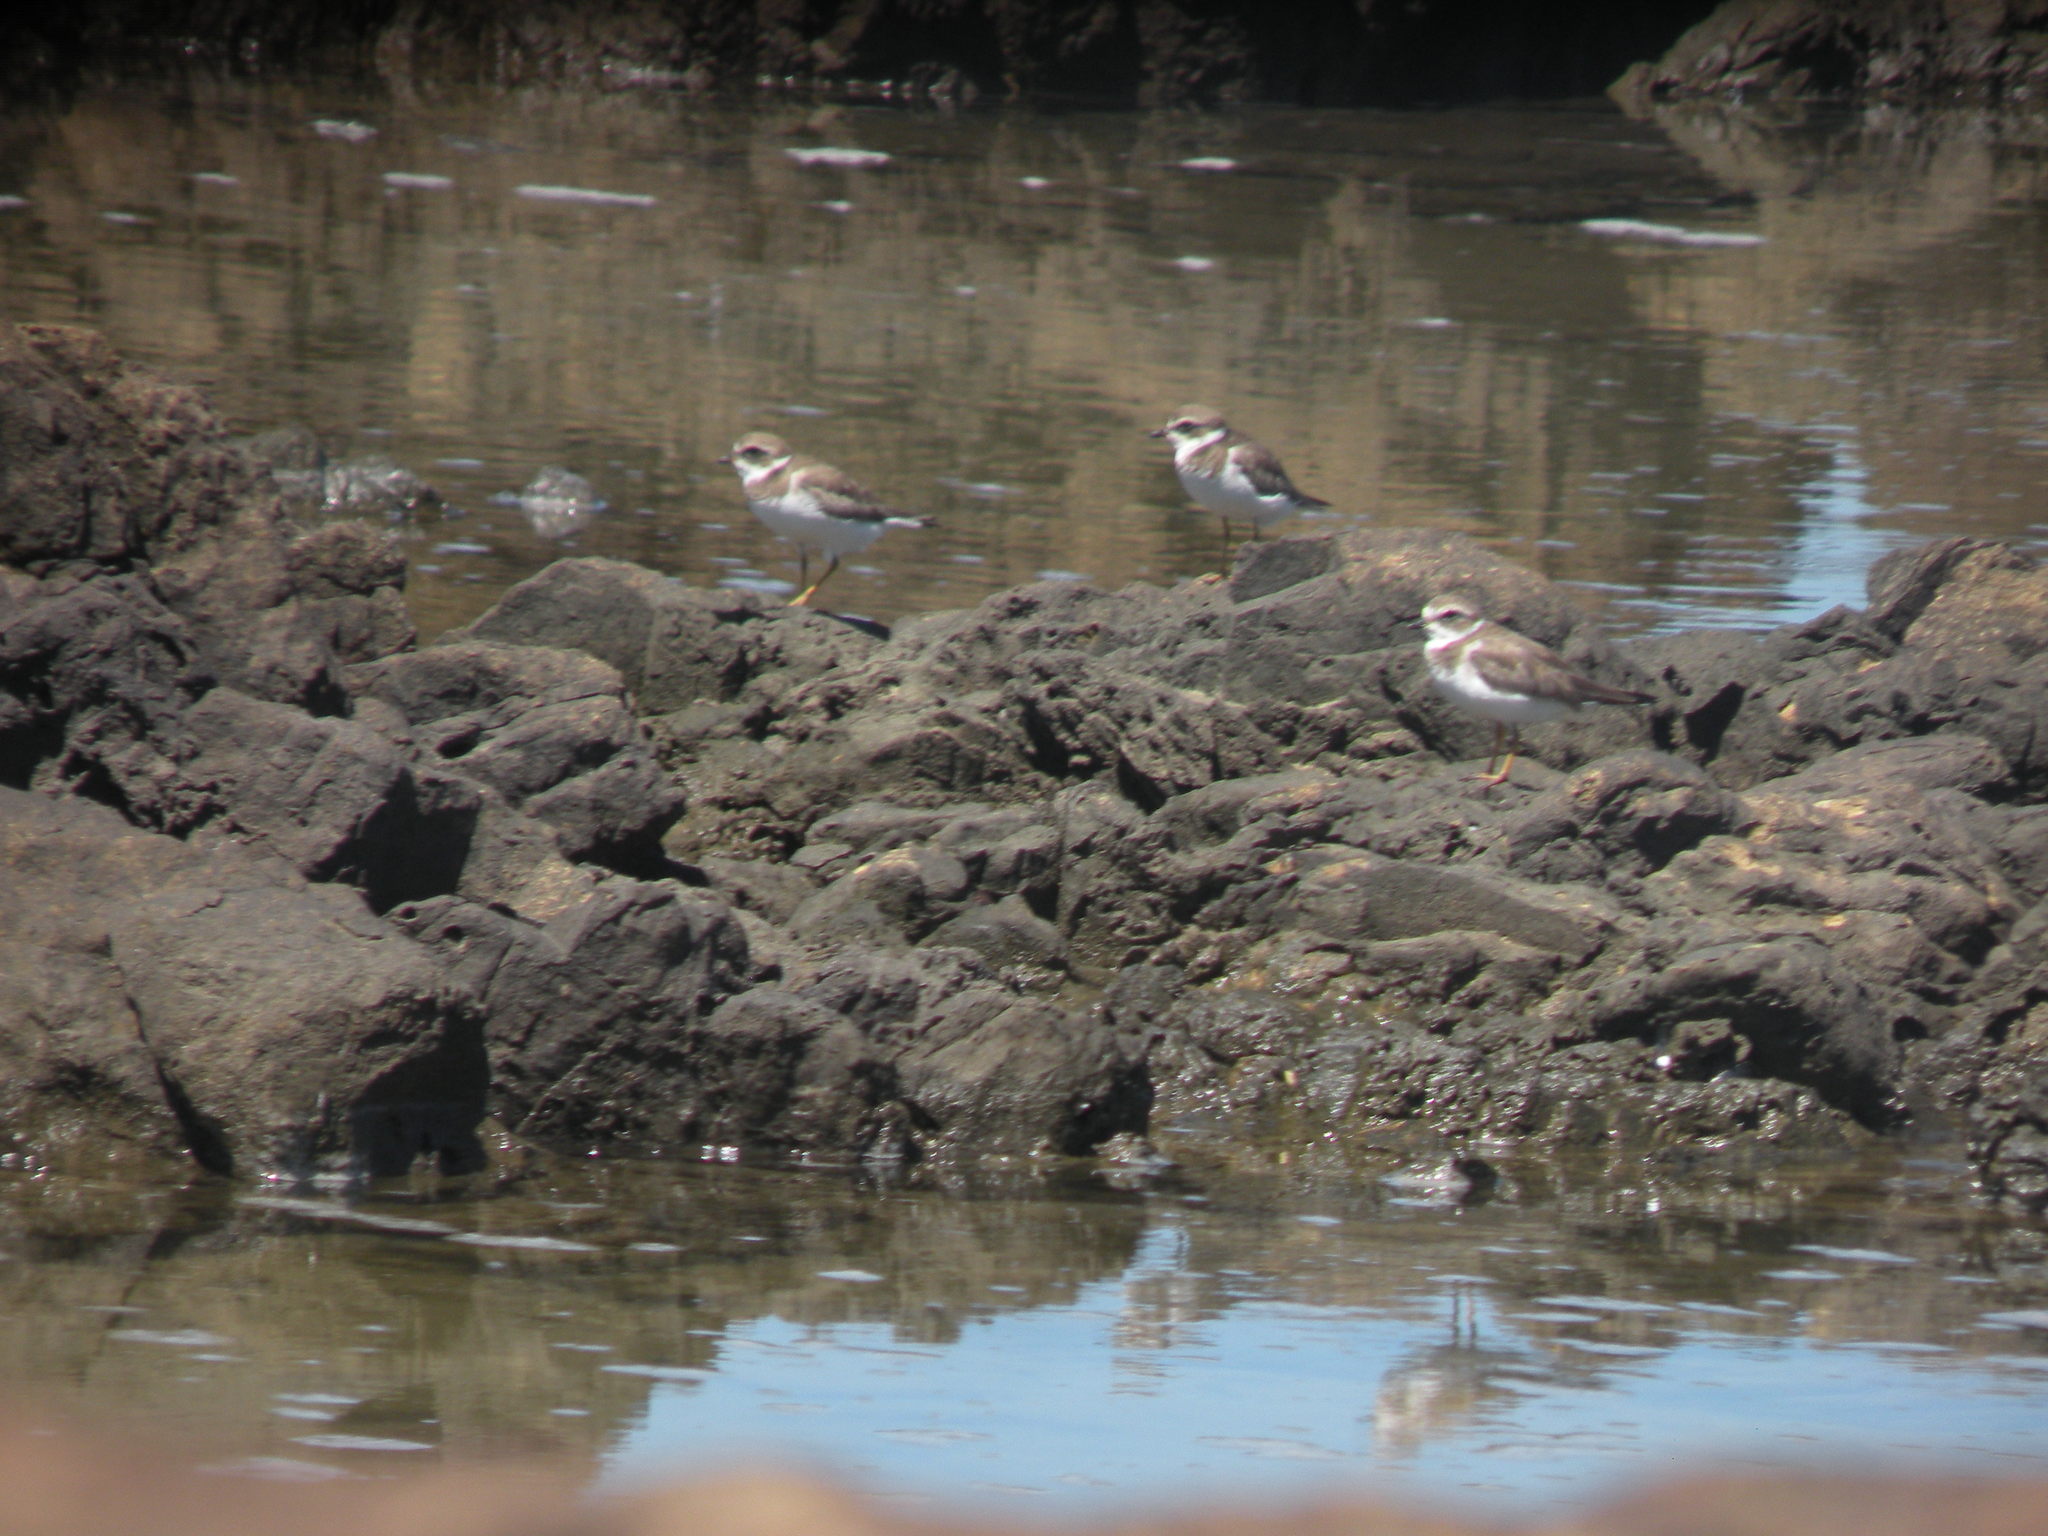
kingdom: Animalia
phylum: Chordata
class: Aves
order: Charadriiformes
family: Charadriidae
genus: Charadrius
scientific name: Charadrius semipalmatus
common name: Semipalmated plover
